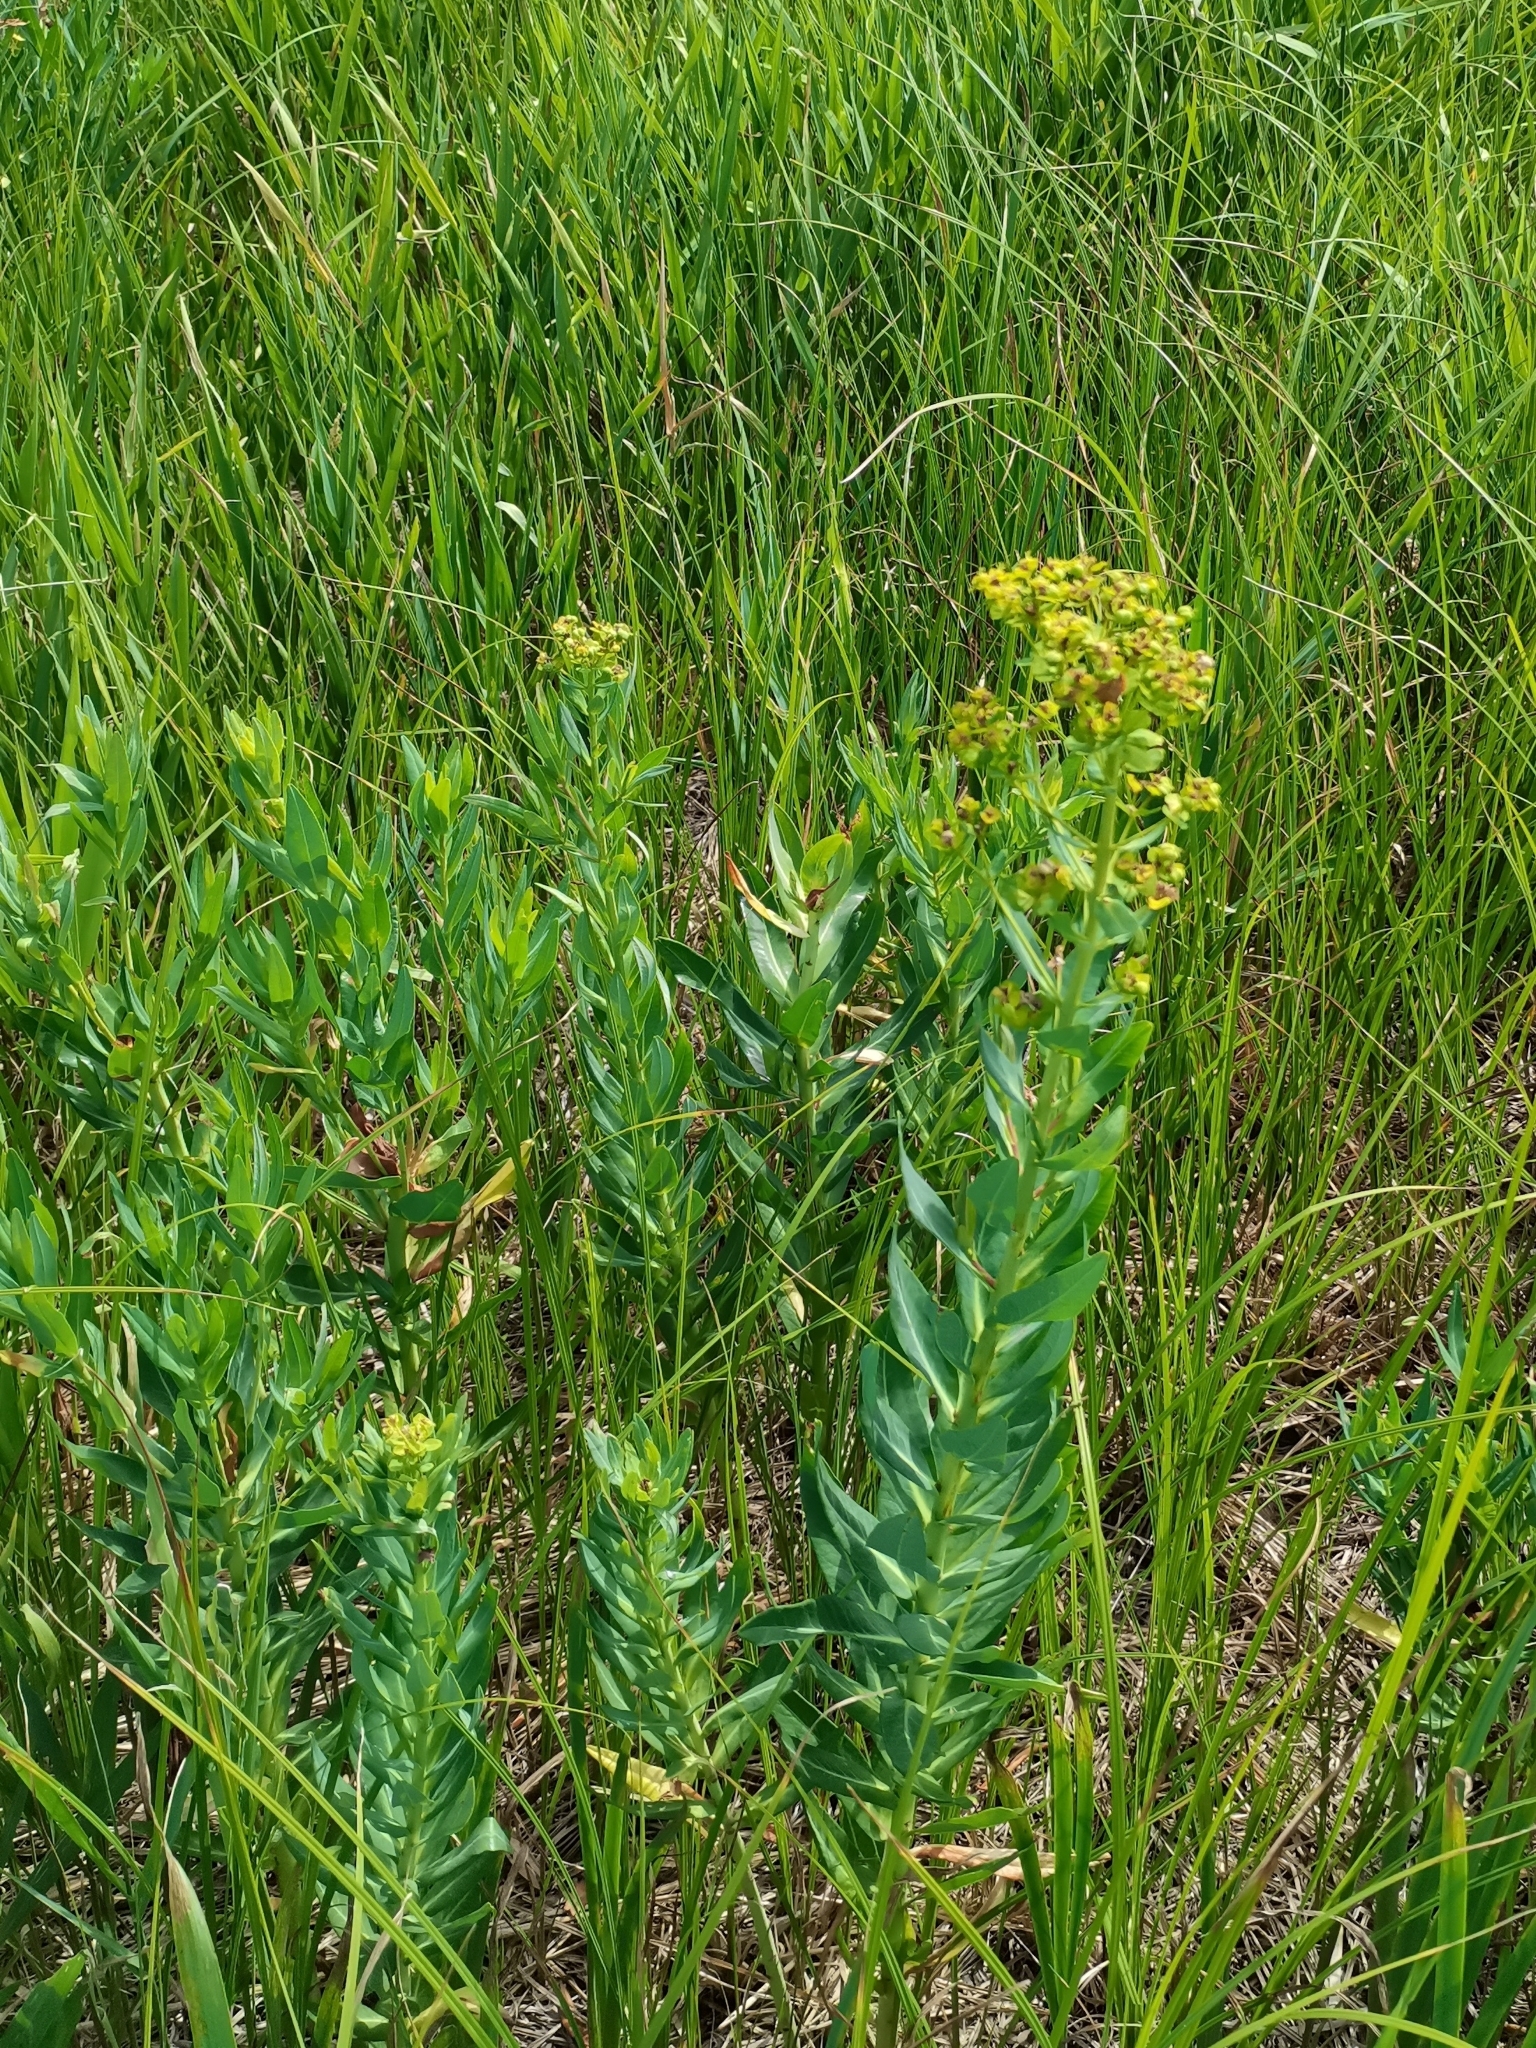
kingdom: Plantae
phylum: Tracheophyta
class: Magnoliopsida
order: Malpighiales
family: Euphorbiaceae
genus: Euphorbia
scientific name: Euphorbia lucida
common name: Shining spurge
